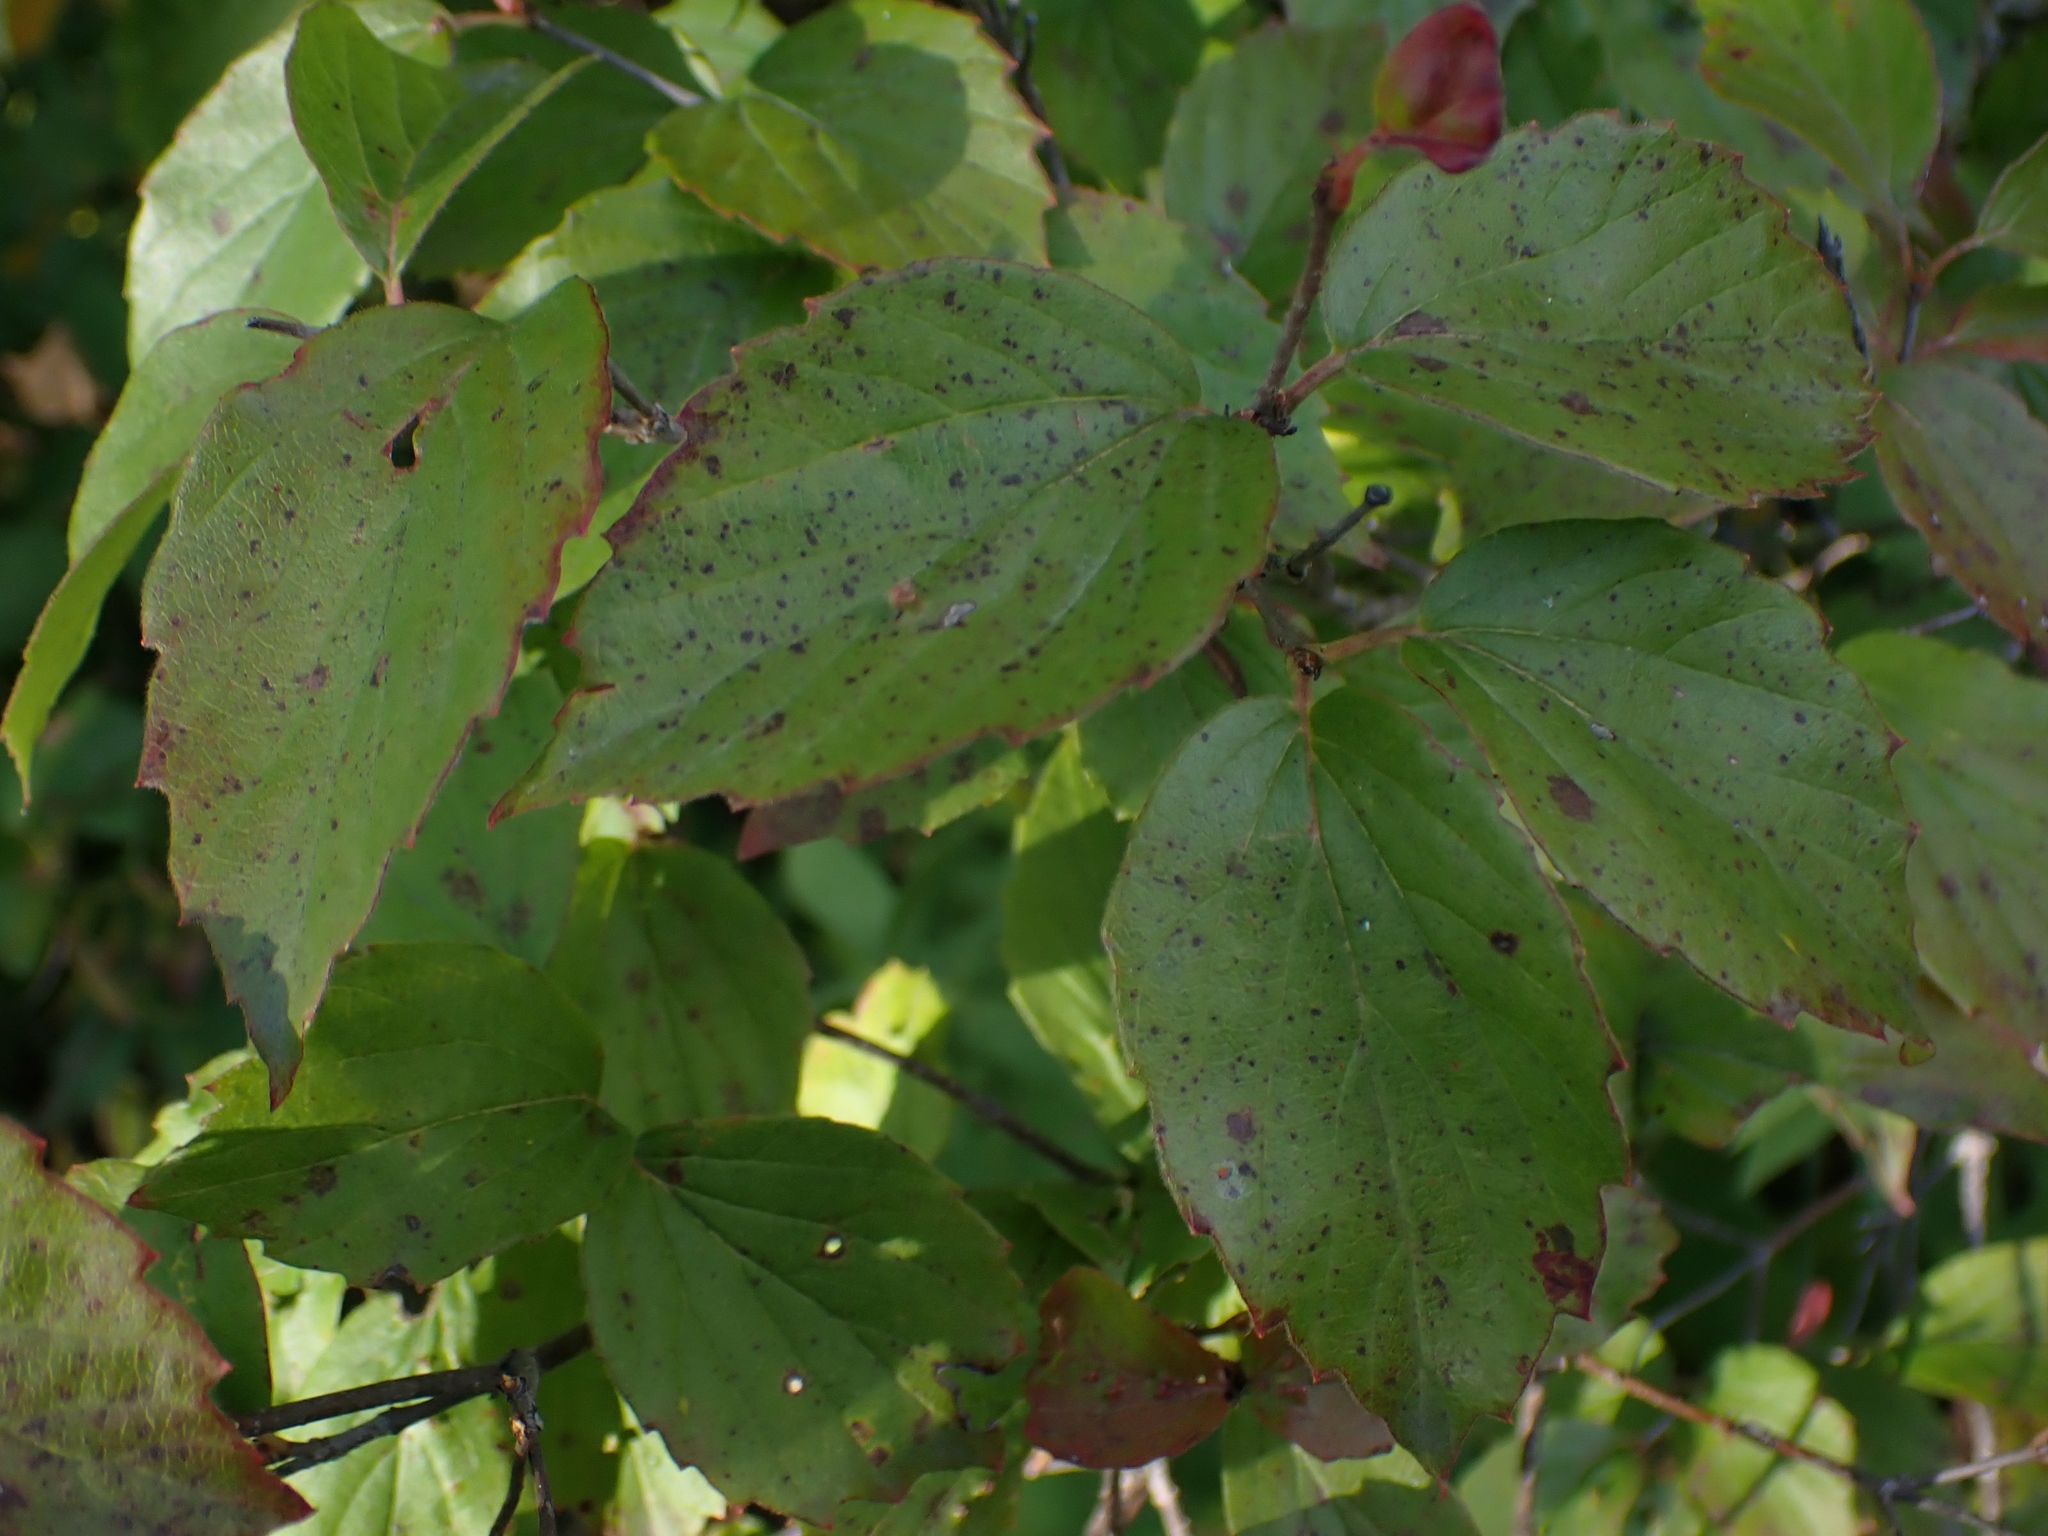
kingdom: Plantae
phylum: Tracheophyta
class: Magnoliopsida
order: Dipsacales
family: Viburnaceae
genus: Viburnum
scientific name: Viburnum rafinesqueanum
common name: Downy arrow-wood
